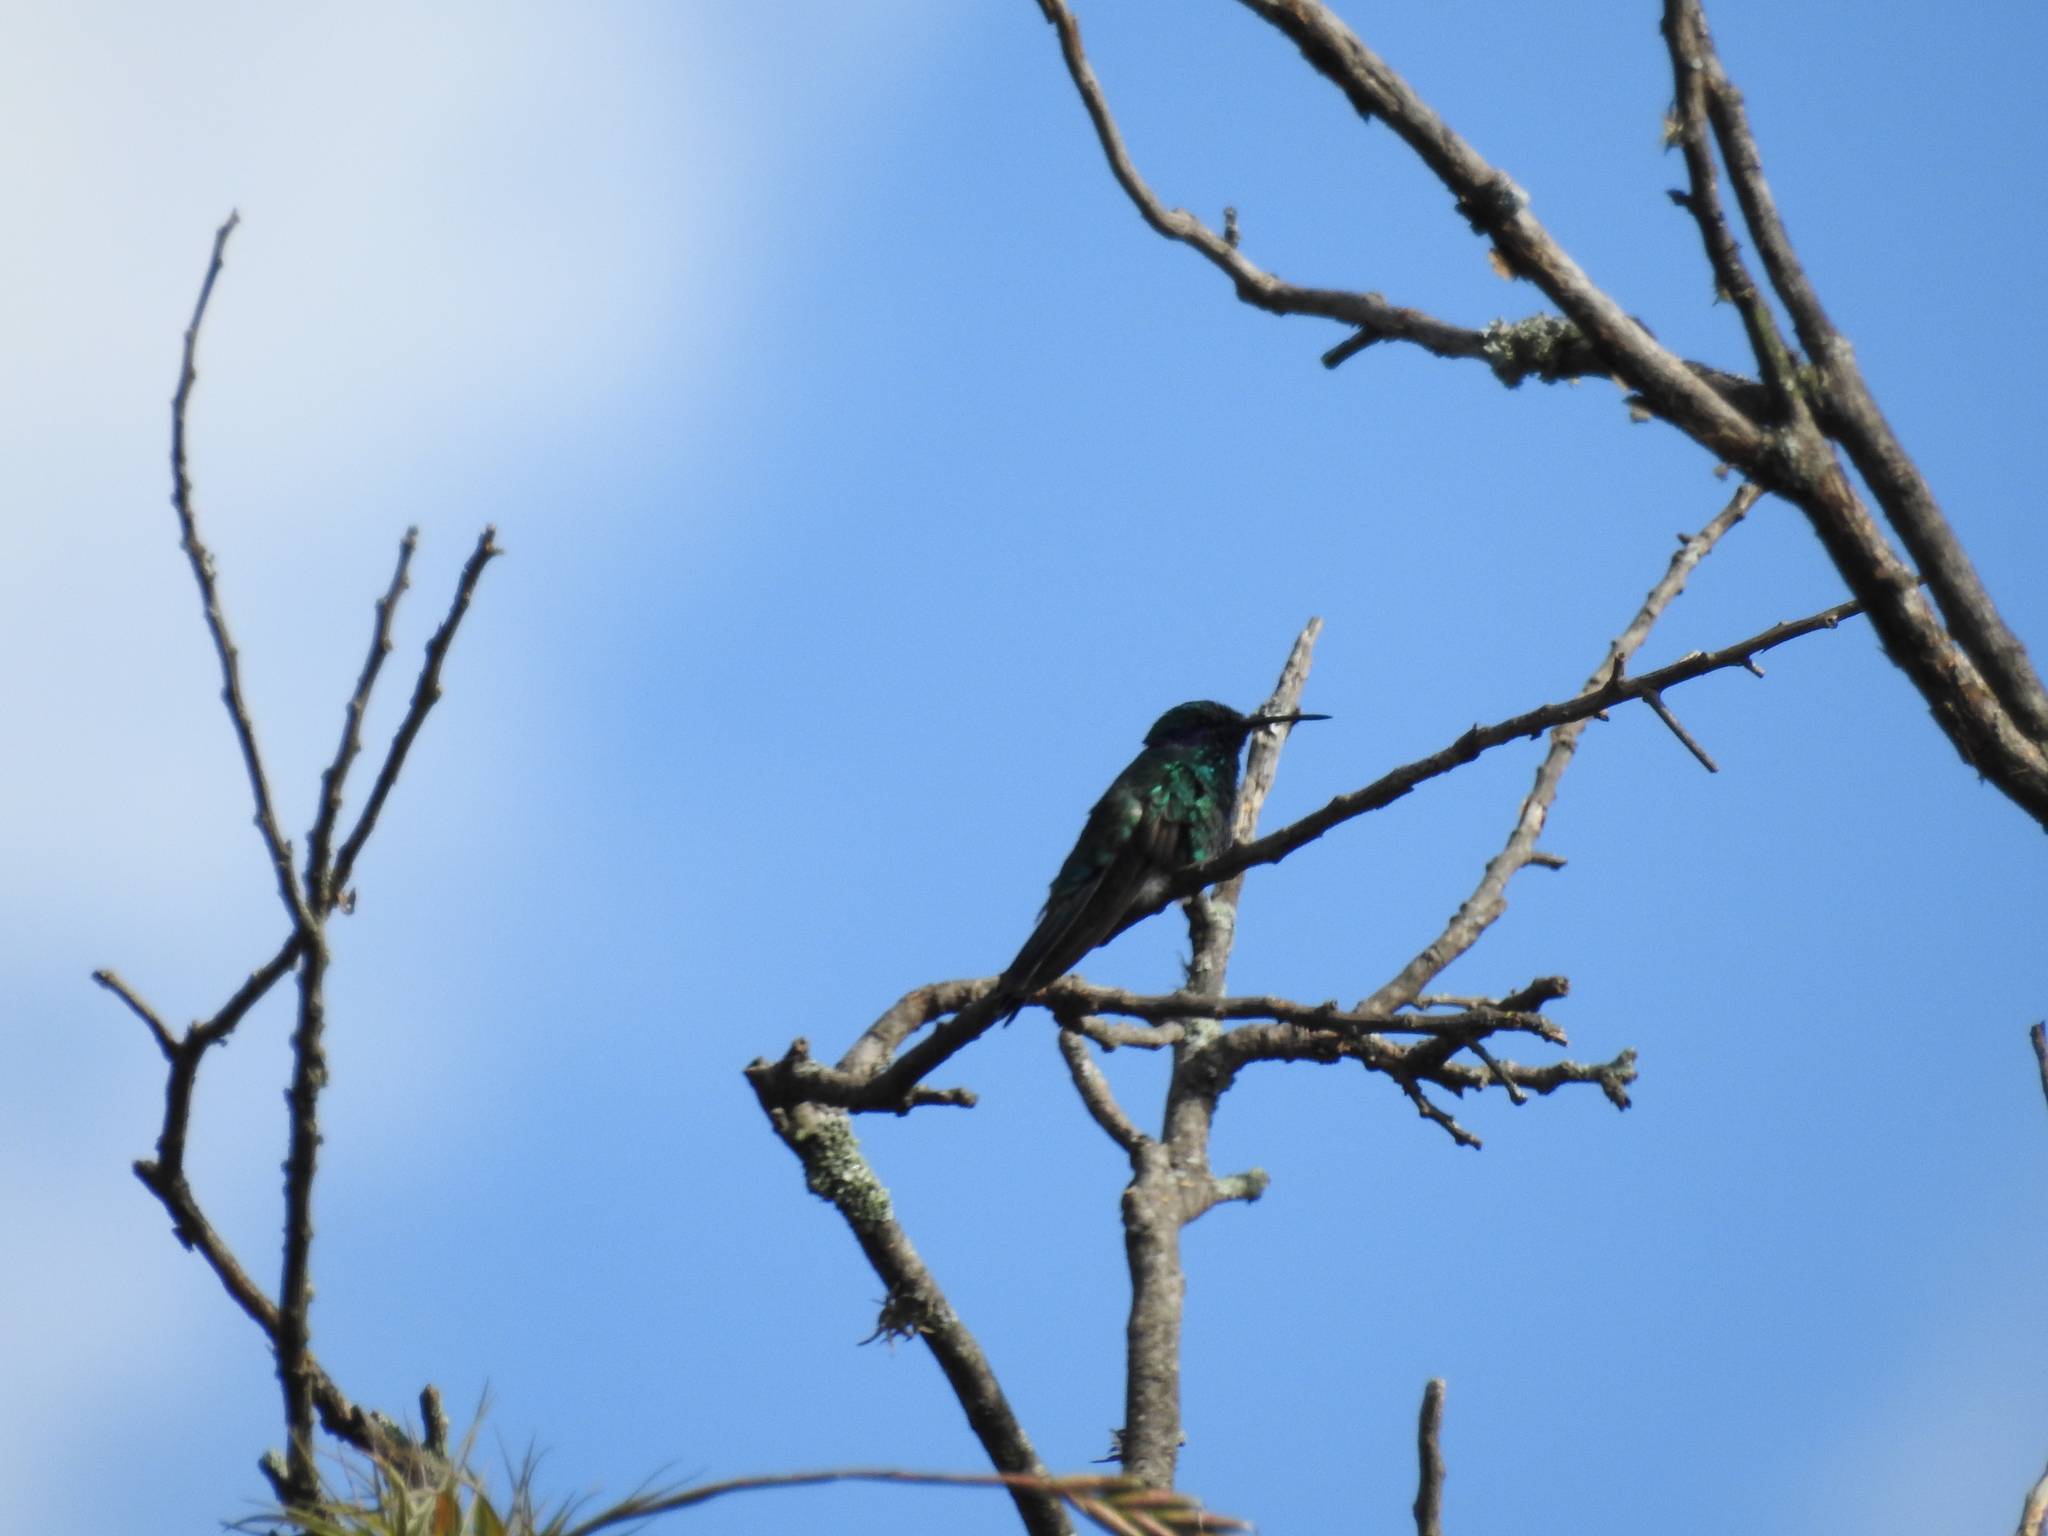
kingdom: Animalia
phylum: Chordata
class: Aves
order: Apodiformes
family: Trochilidae
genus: Colibri
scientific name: Colibri coruscans
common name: Sparkling violetear
